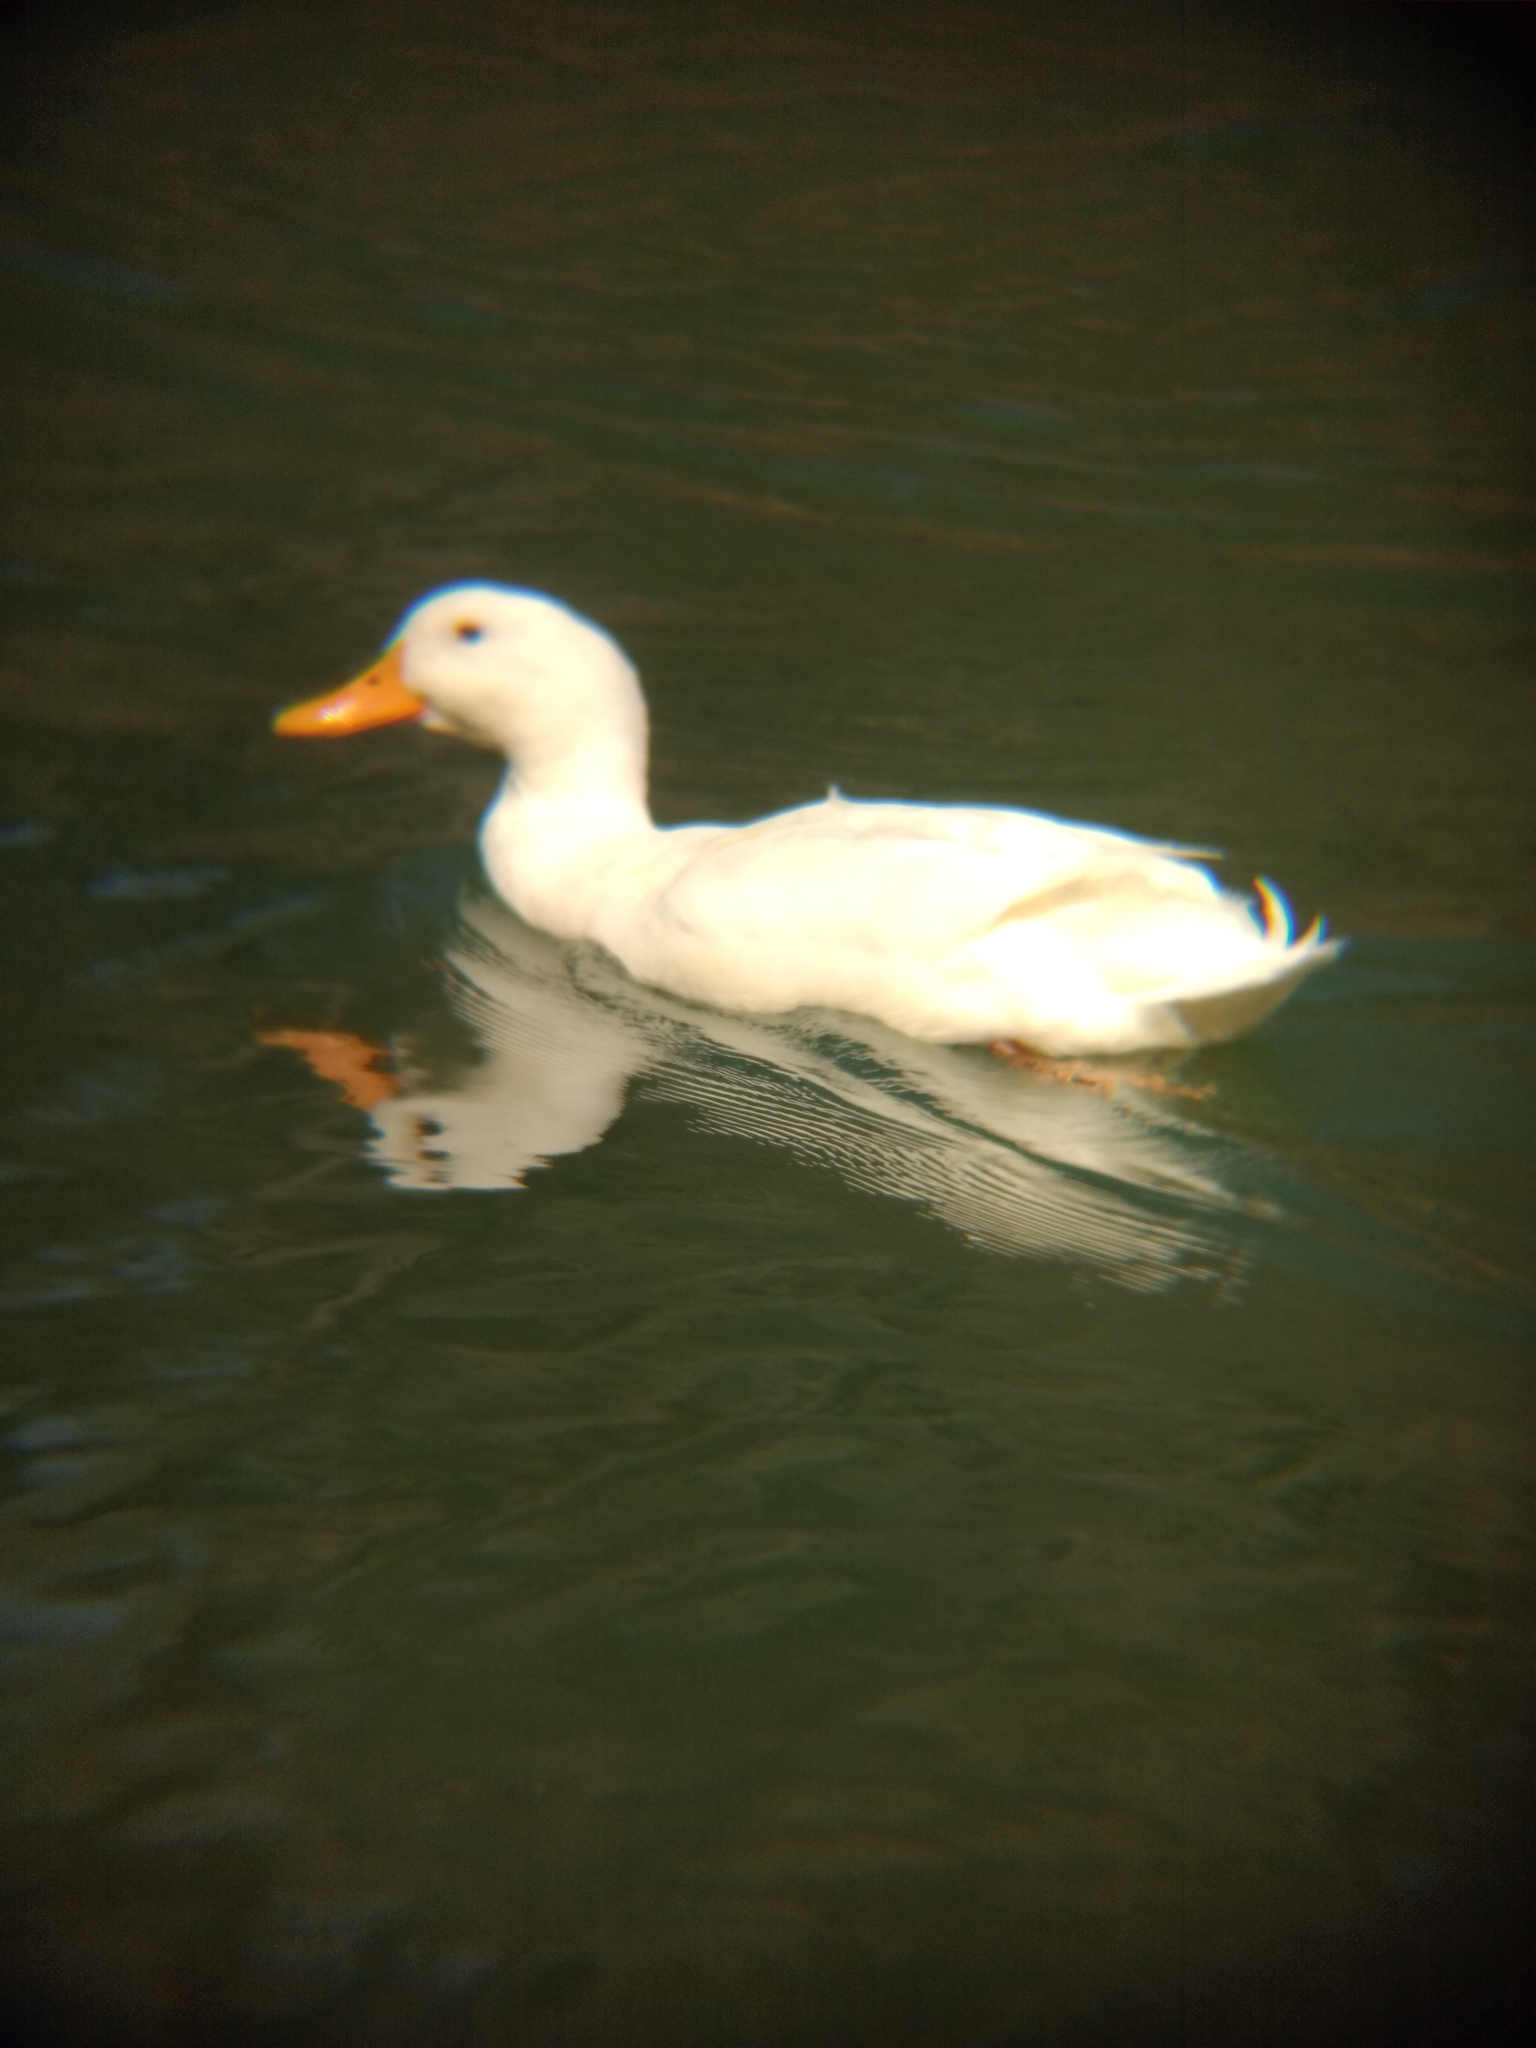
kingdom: Animalia
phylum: Chordata
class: Aves
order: Anseriformes
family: Anatidae
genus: Anas
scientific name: Anas platyrhynchos
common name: Mallard
